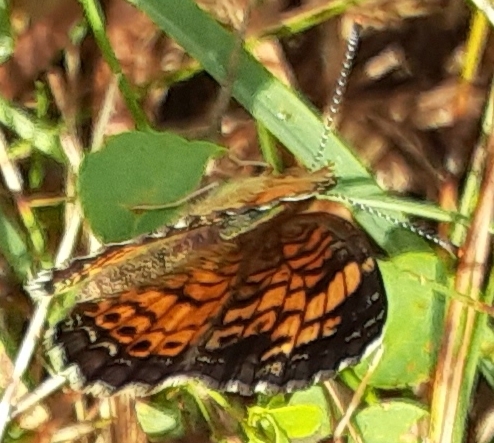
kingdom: Animalia
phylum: Arthropoda
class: Insecta
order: Lepidoptera
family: Nymphalidae
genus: Phyciodes
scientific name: Phyciodes tharos
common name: Pearl crescent
